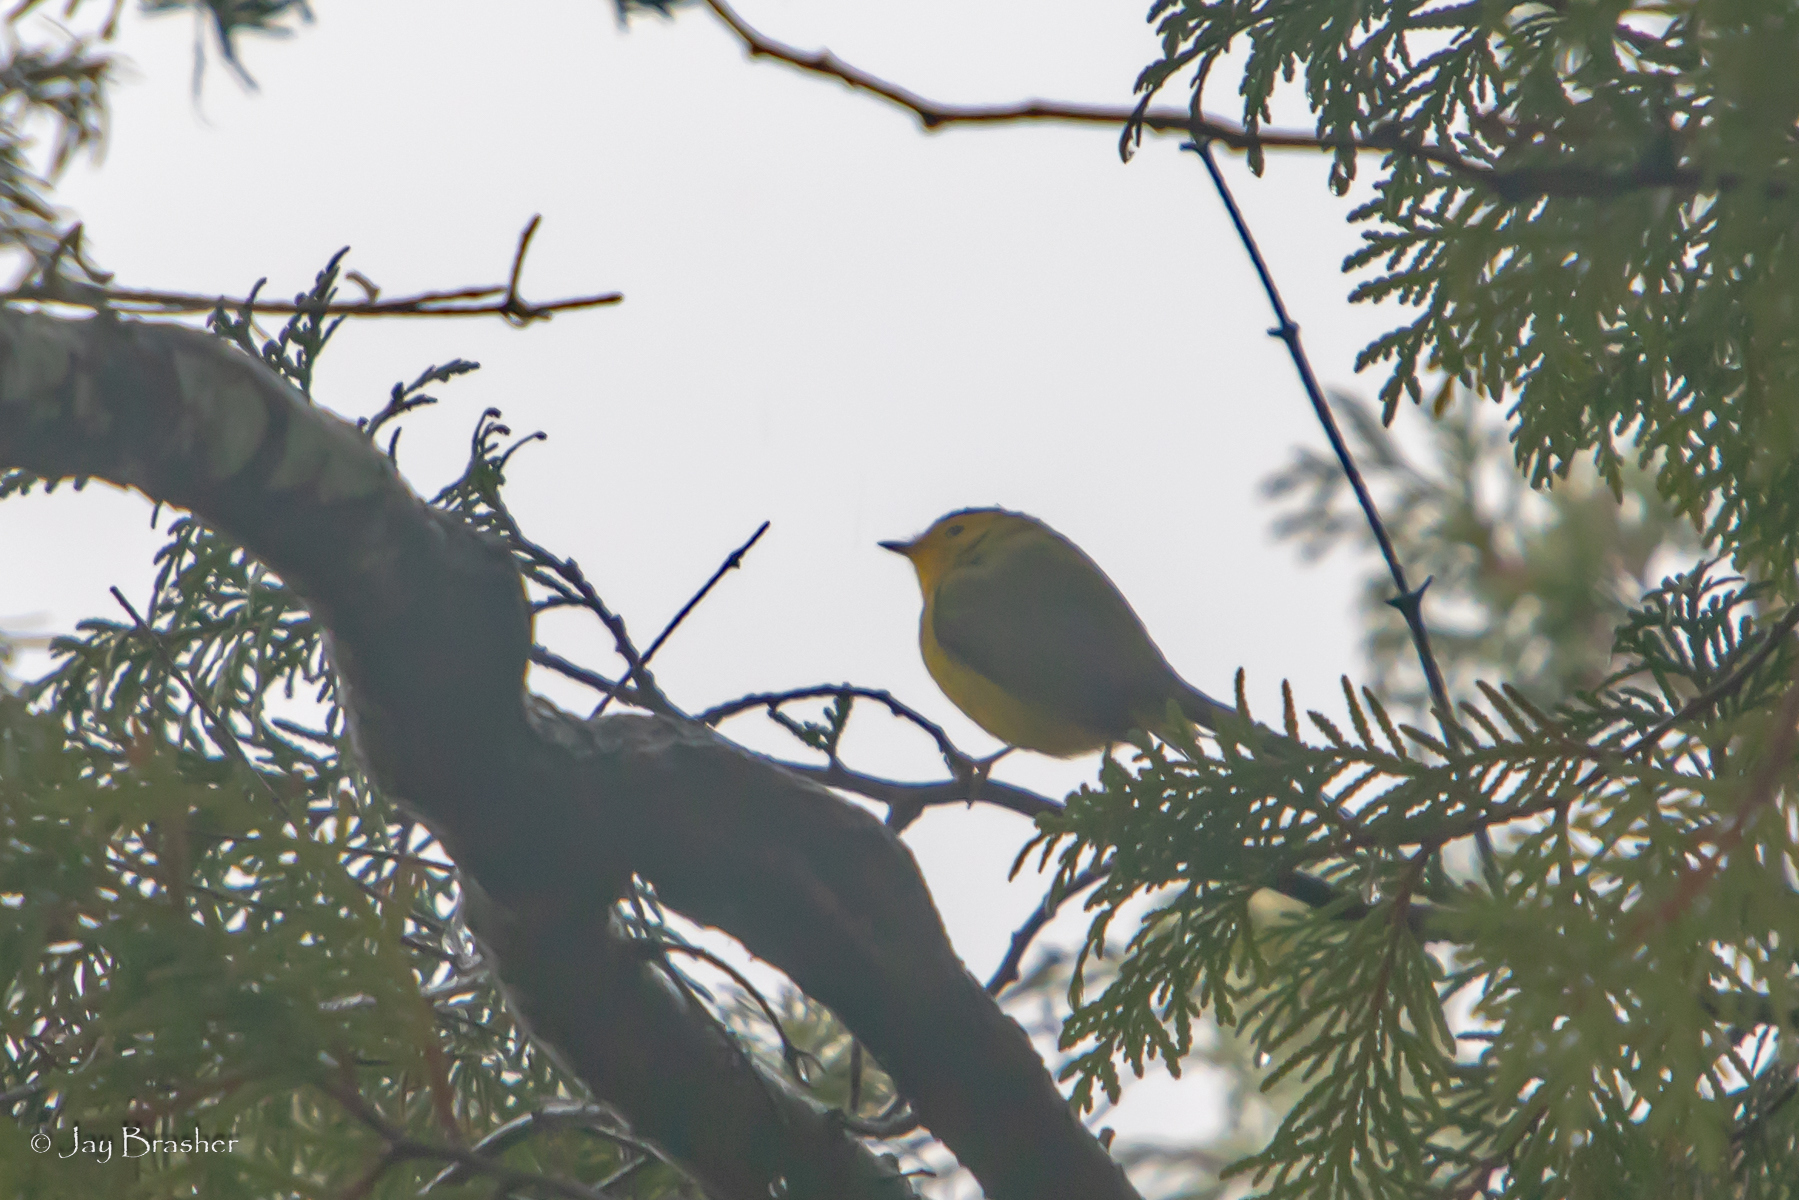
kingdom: Animalia
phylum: Chordata
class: Aves
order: Passeriformes
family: Parulidae
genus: Cardellina
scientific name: Cardellina pusilla
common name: Wilson's warbler
